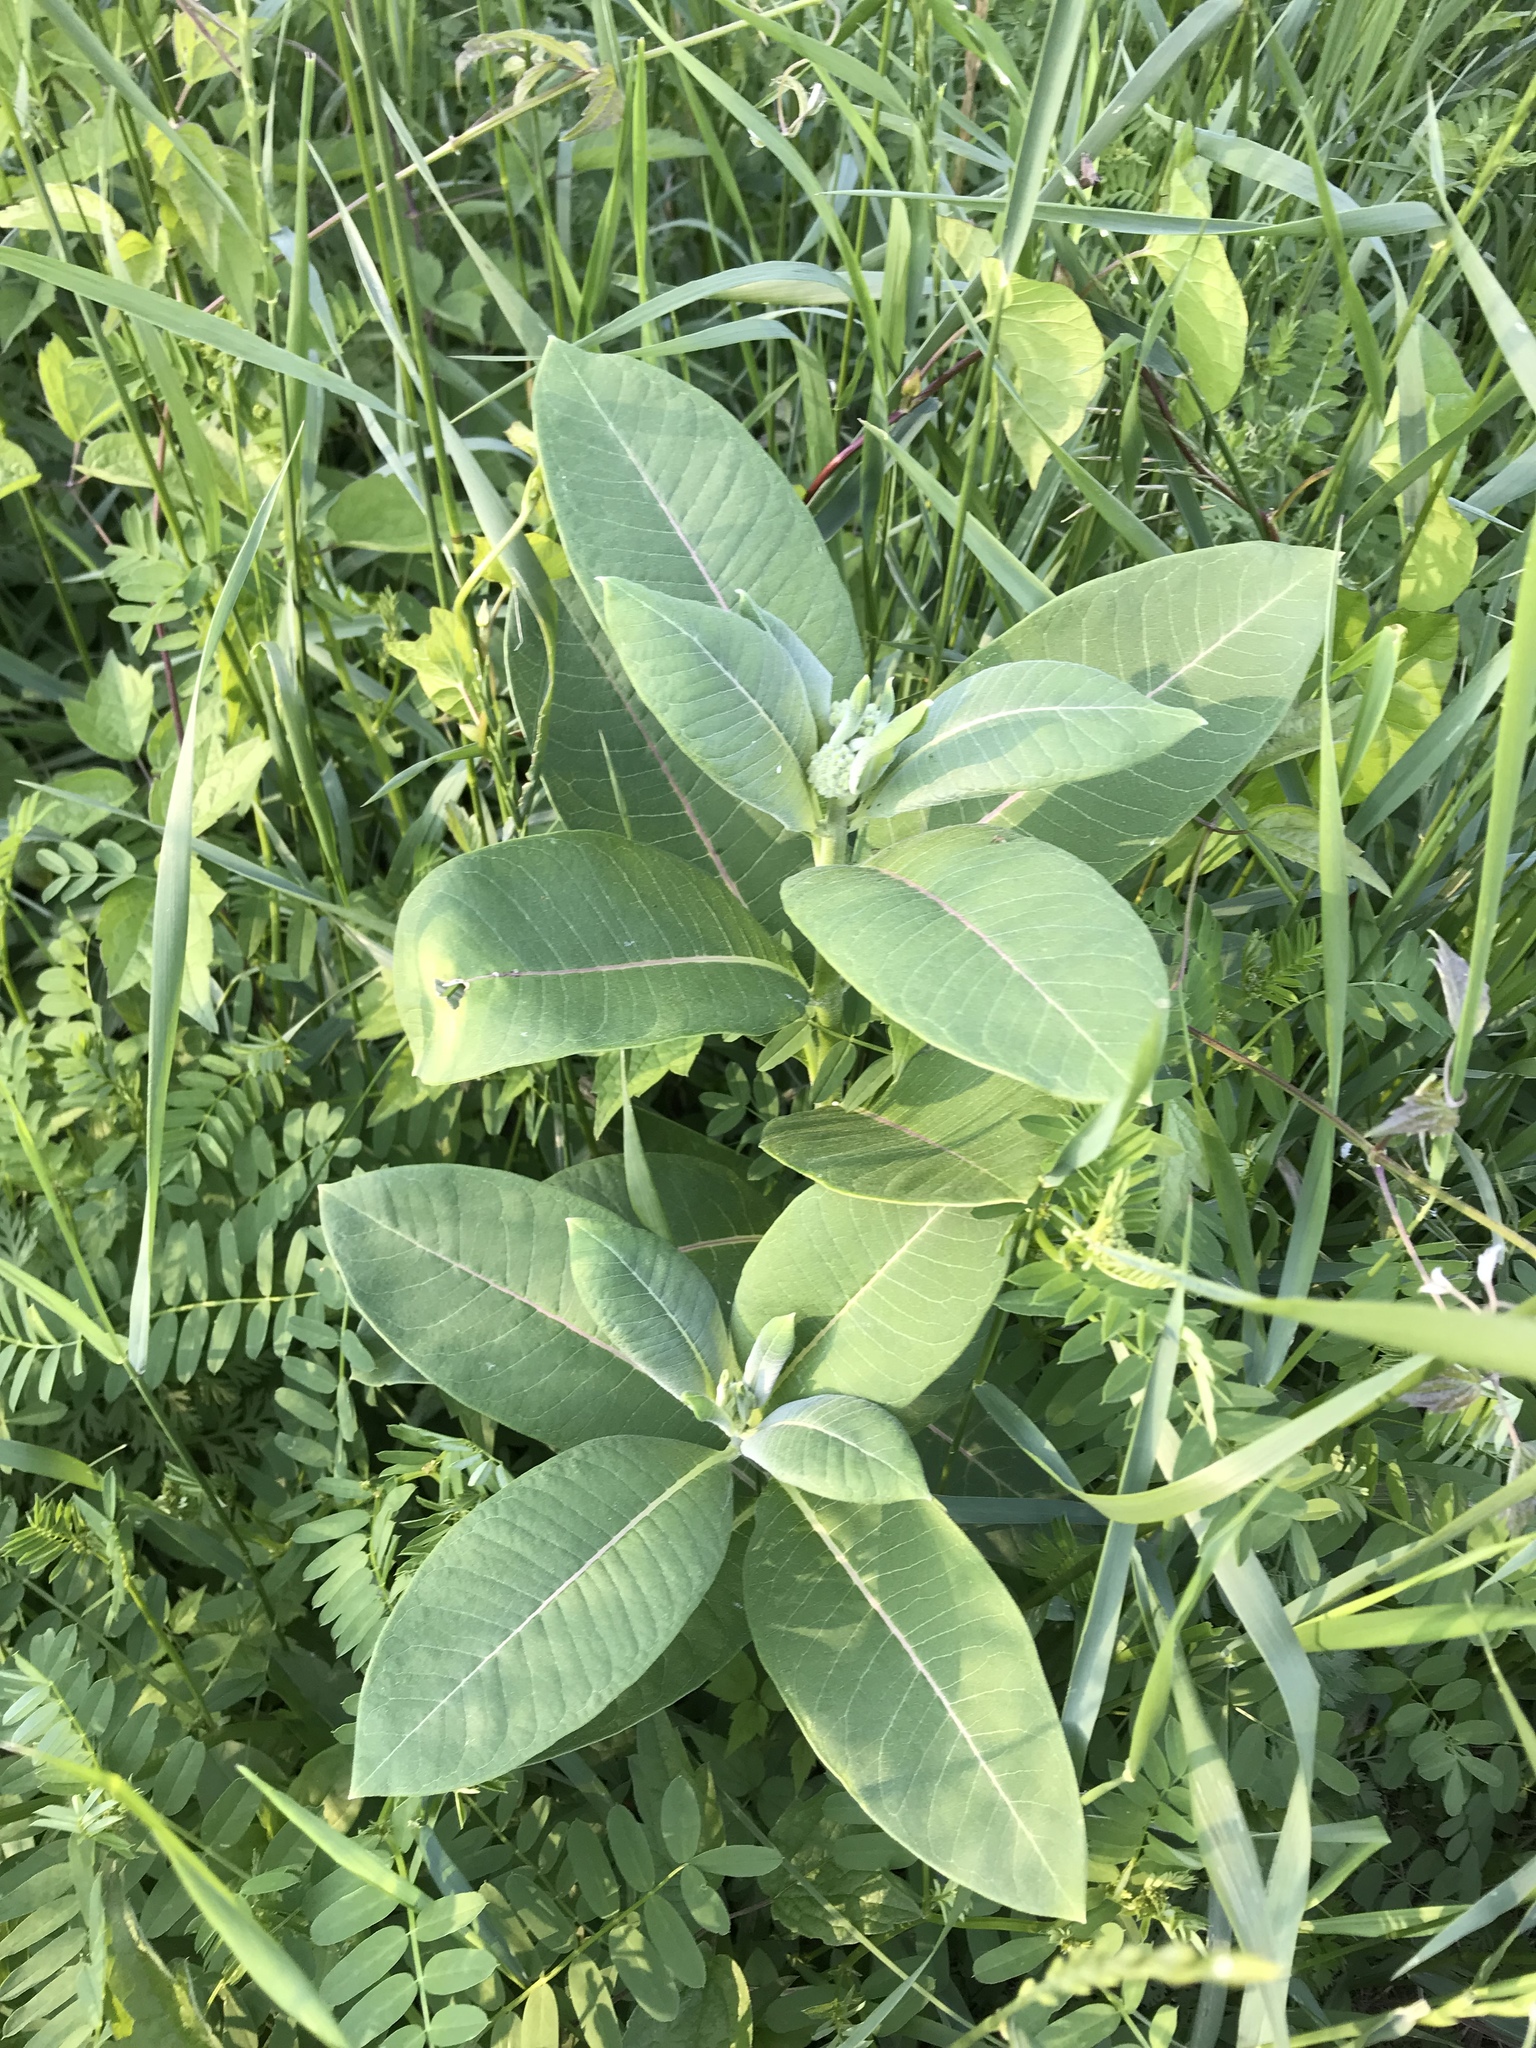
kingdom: Plantae
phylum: Tracheophyta
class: Magnoliopsida
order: Gentianales
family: Apocynaceae
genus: Asclepias
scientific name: Asclepias syriaca
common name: Common milkweed
